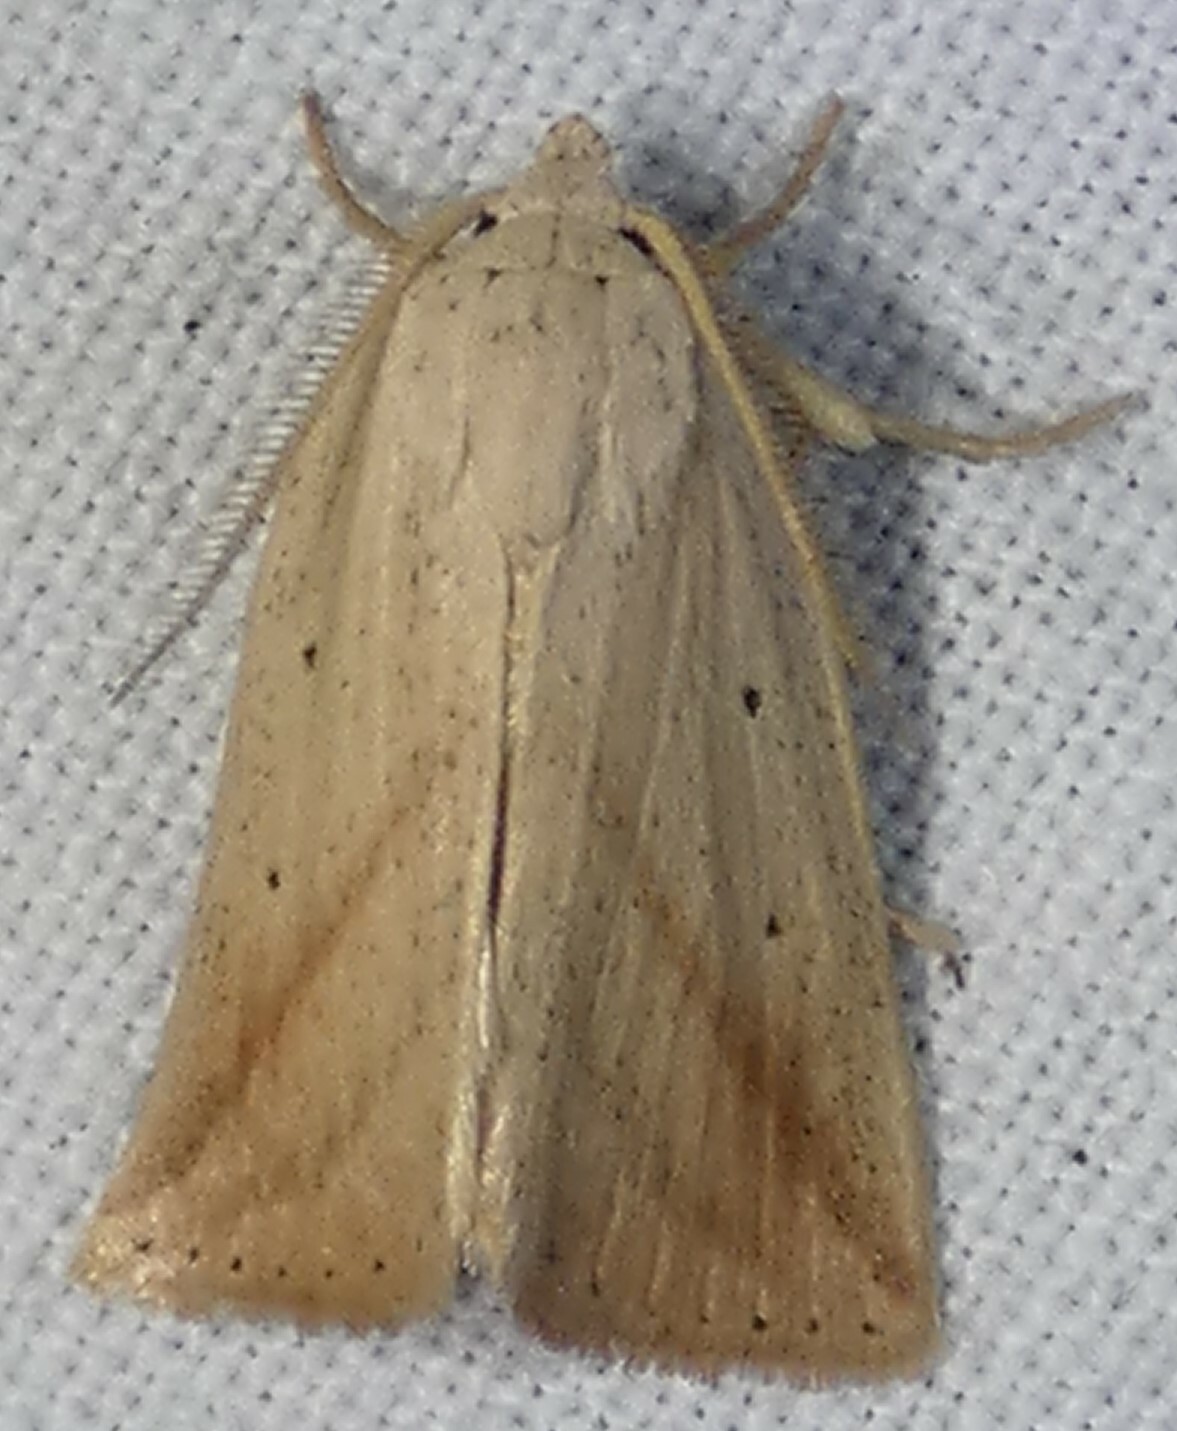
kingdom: Animalia
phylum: Arthropoda
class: Insecta
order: Lepidoptera
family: Noctuidae
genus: Amolita
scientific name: Amolita obliqua
